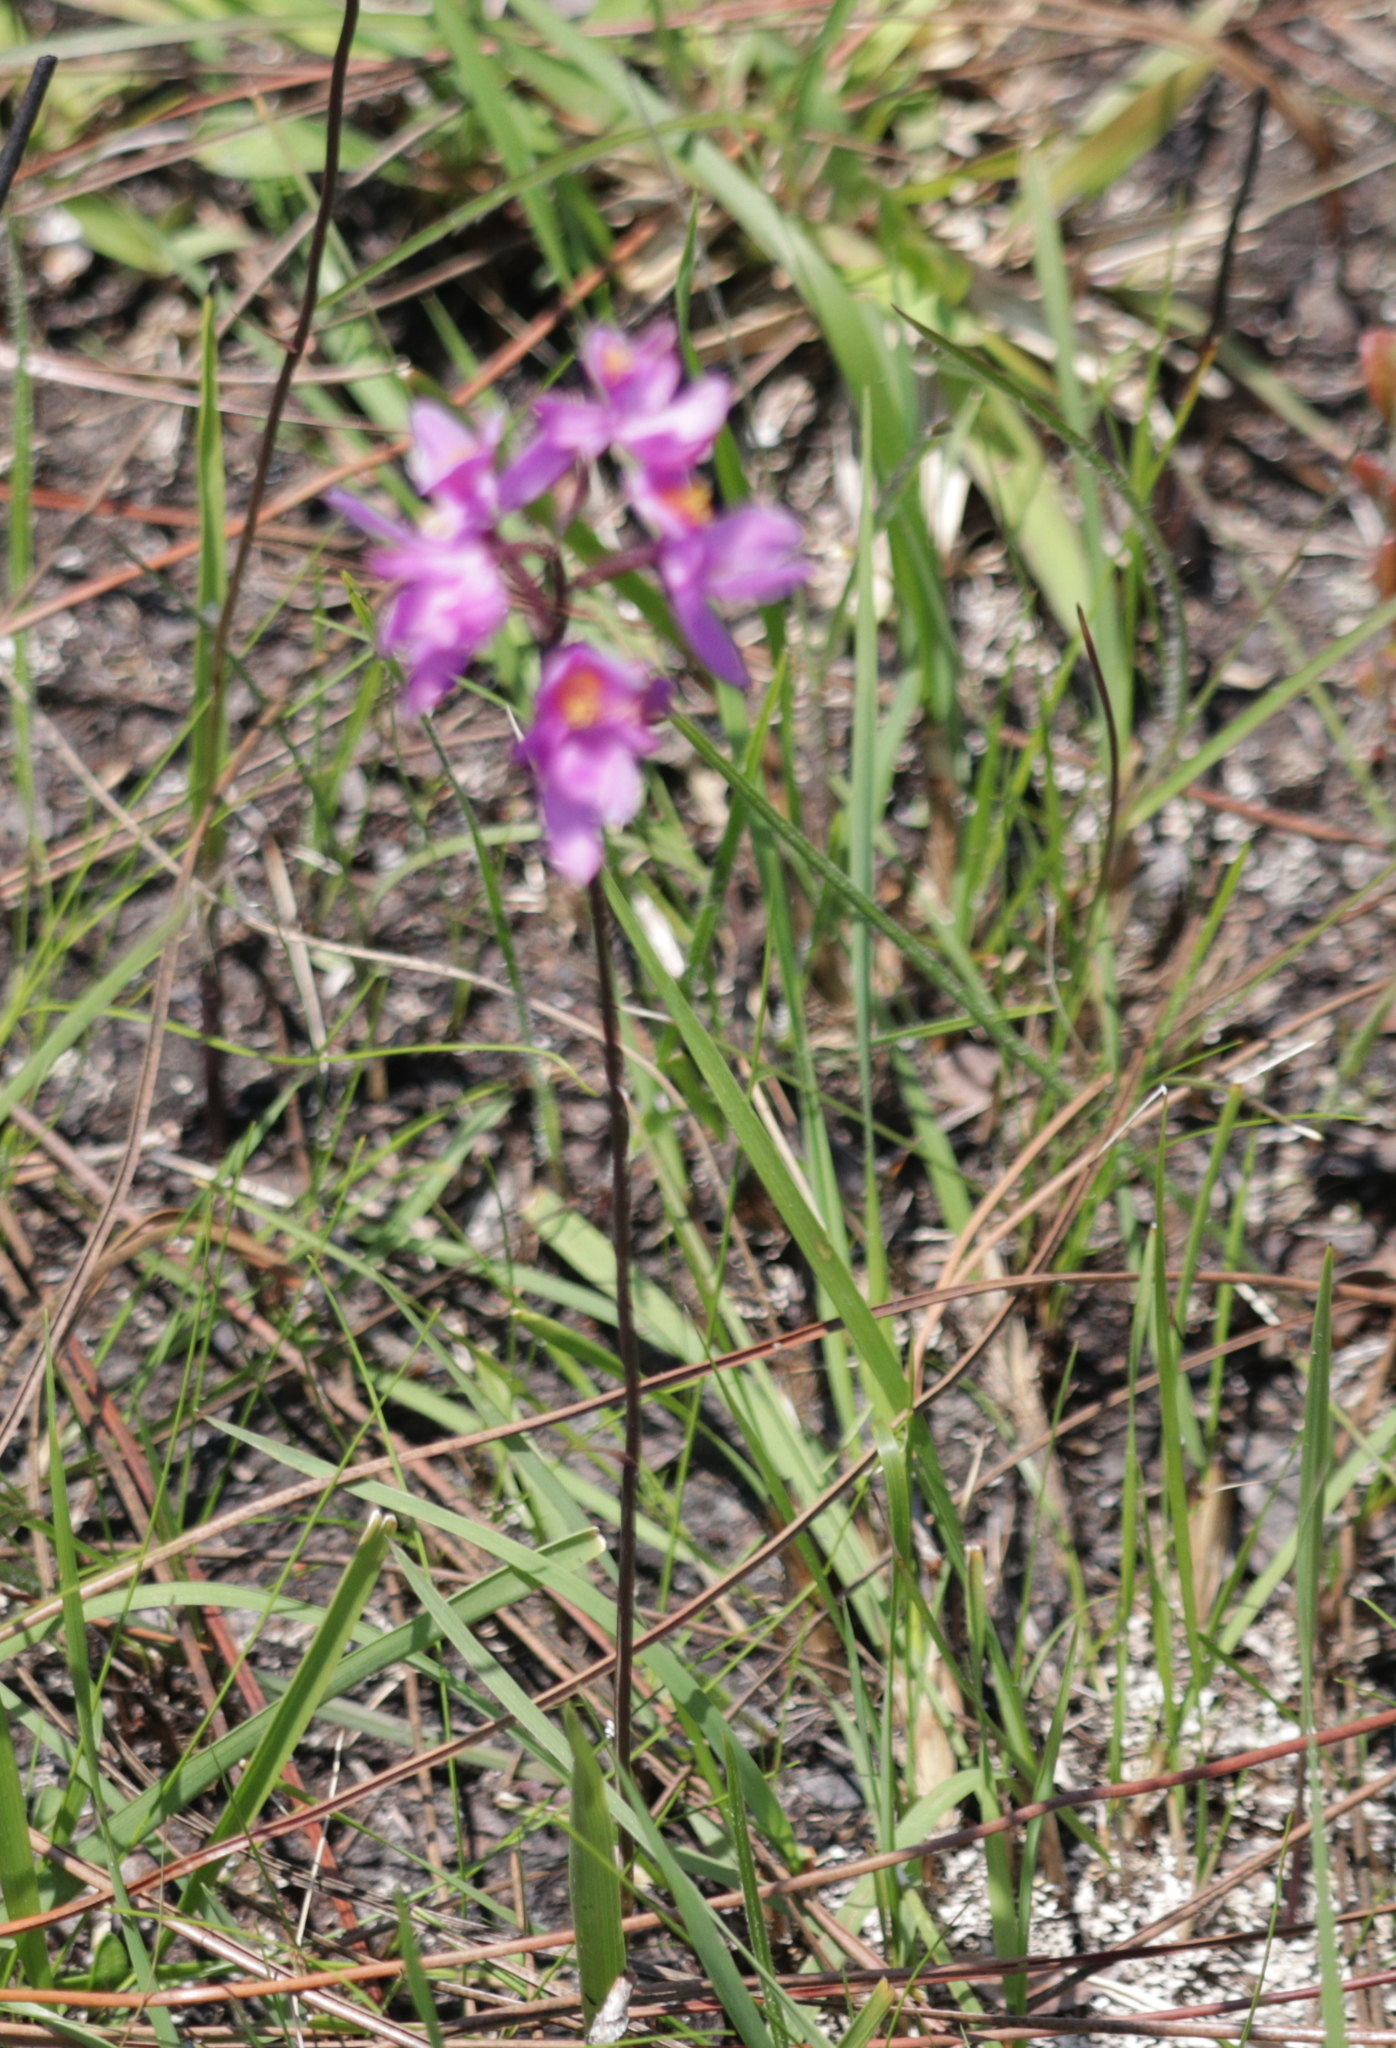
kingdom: Plantae
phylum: Tracheophyta
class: Liliopsida
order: Asparagales
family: Orchidaceae
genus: Calopogon
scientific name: Calopogon multiflorus
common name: Many-flowered grass-pink orchid
